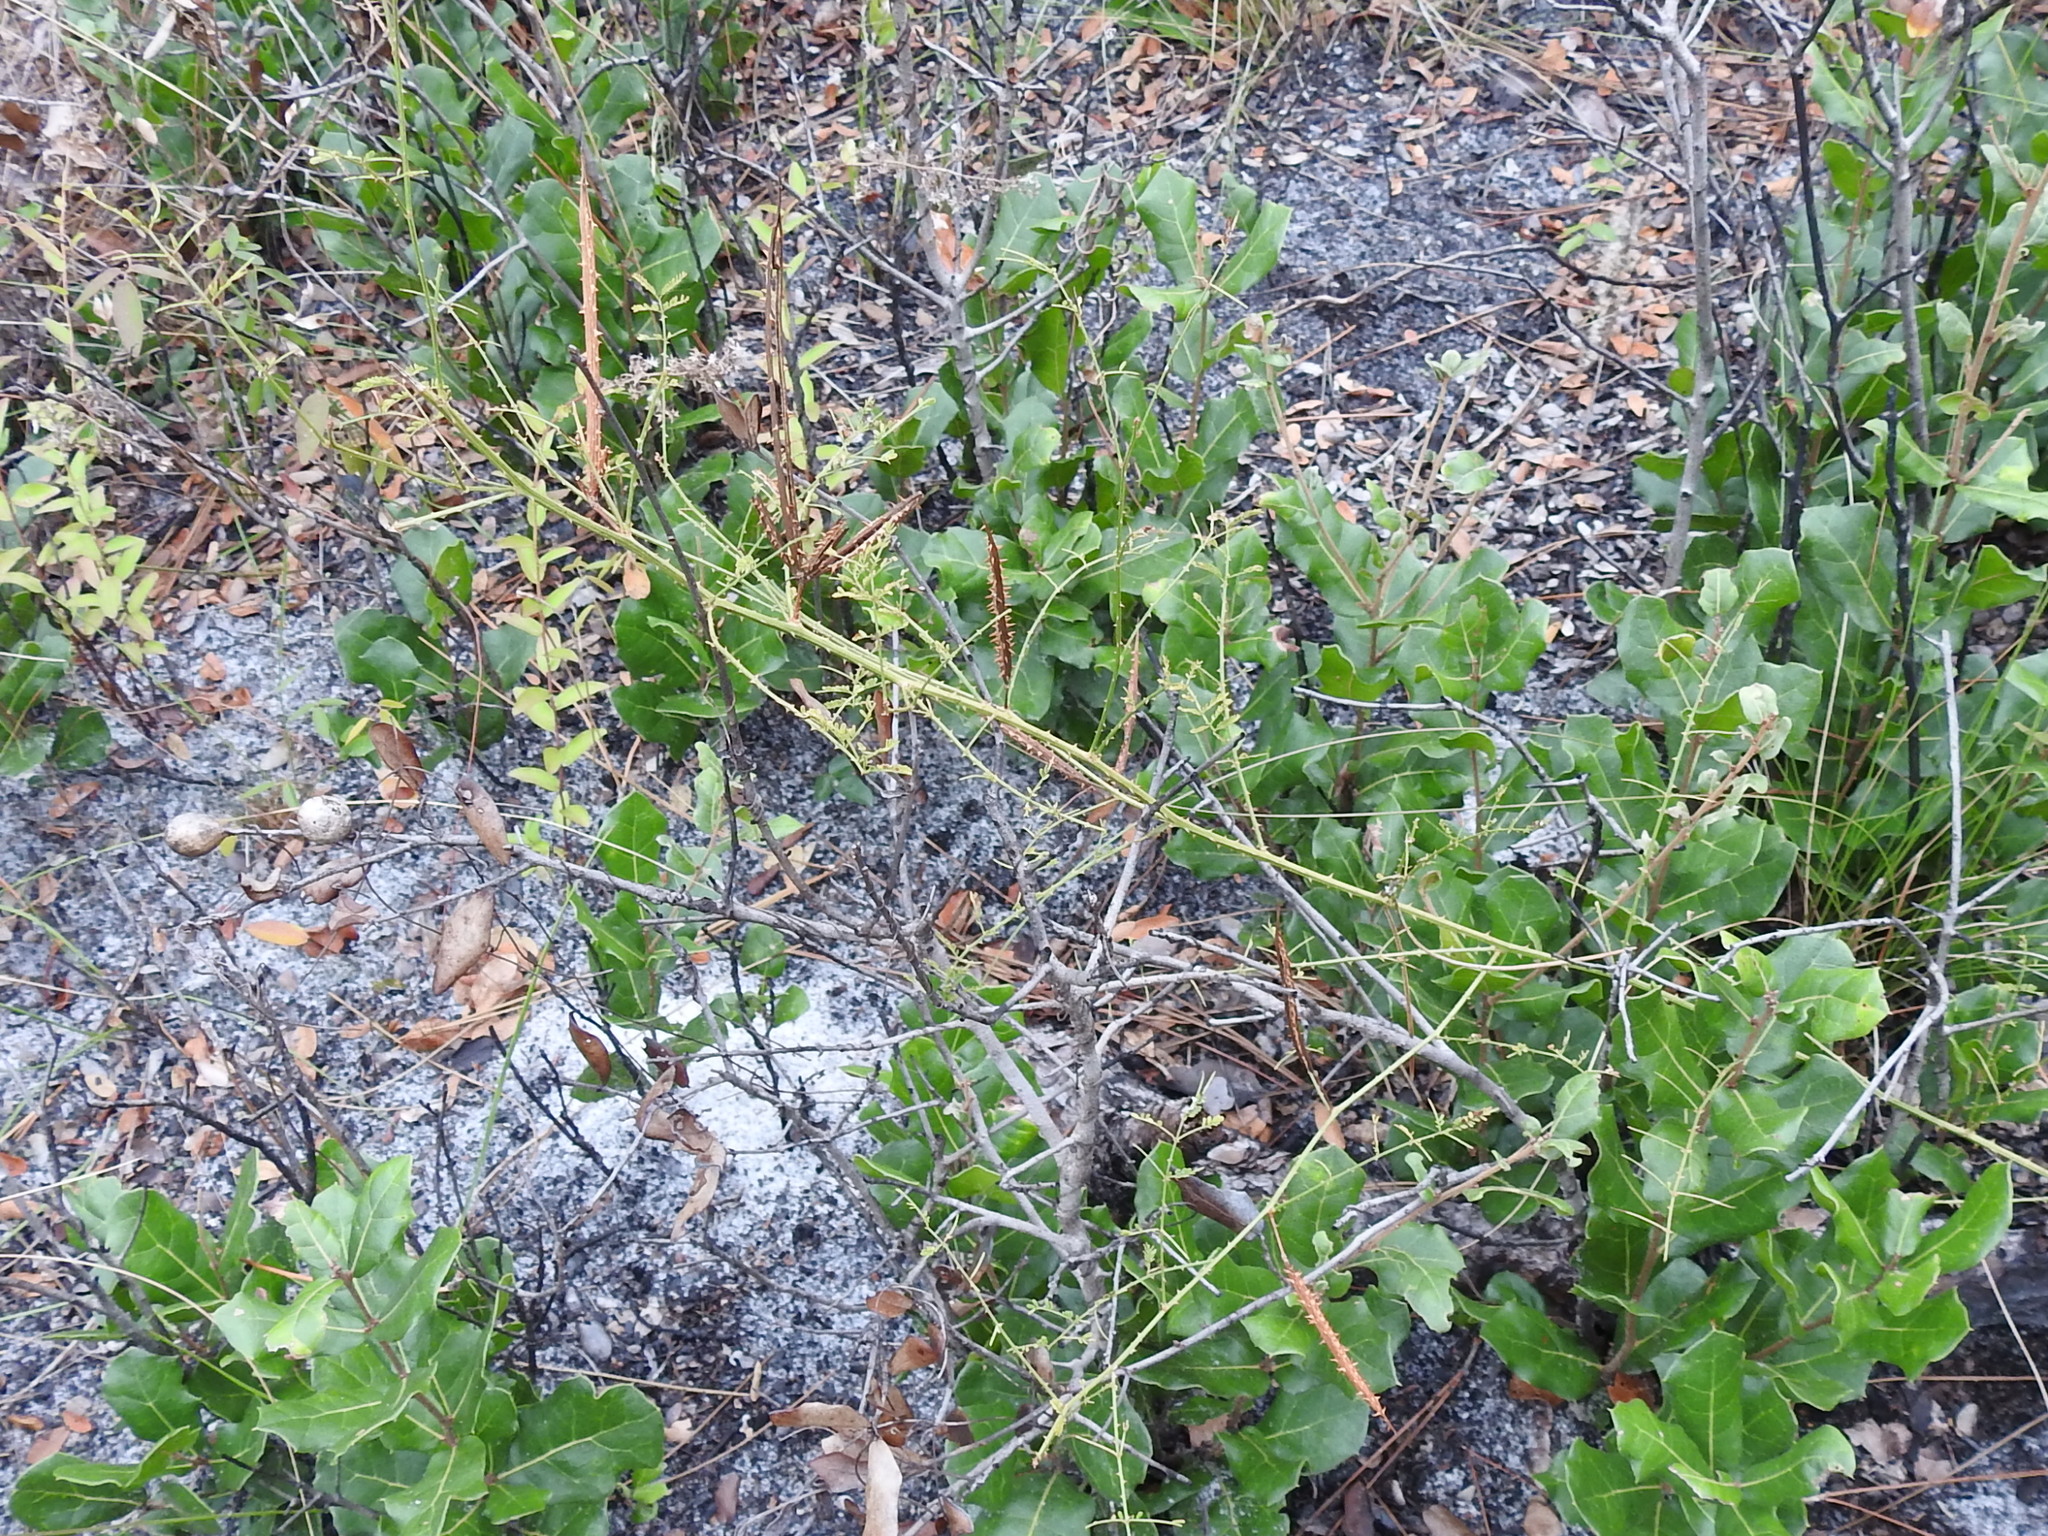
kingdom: Plantae
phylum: Tracheophyta
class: Magnoliopsida
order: Fabales
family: Fabaceae
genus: Mimosa
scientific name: Mimosa quadrivalvis
